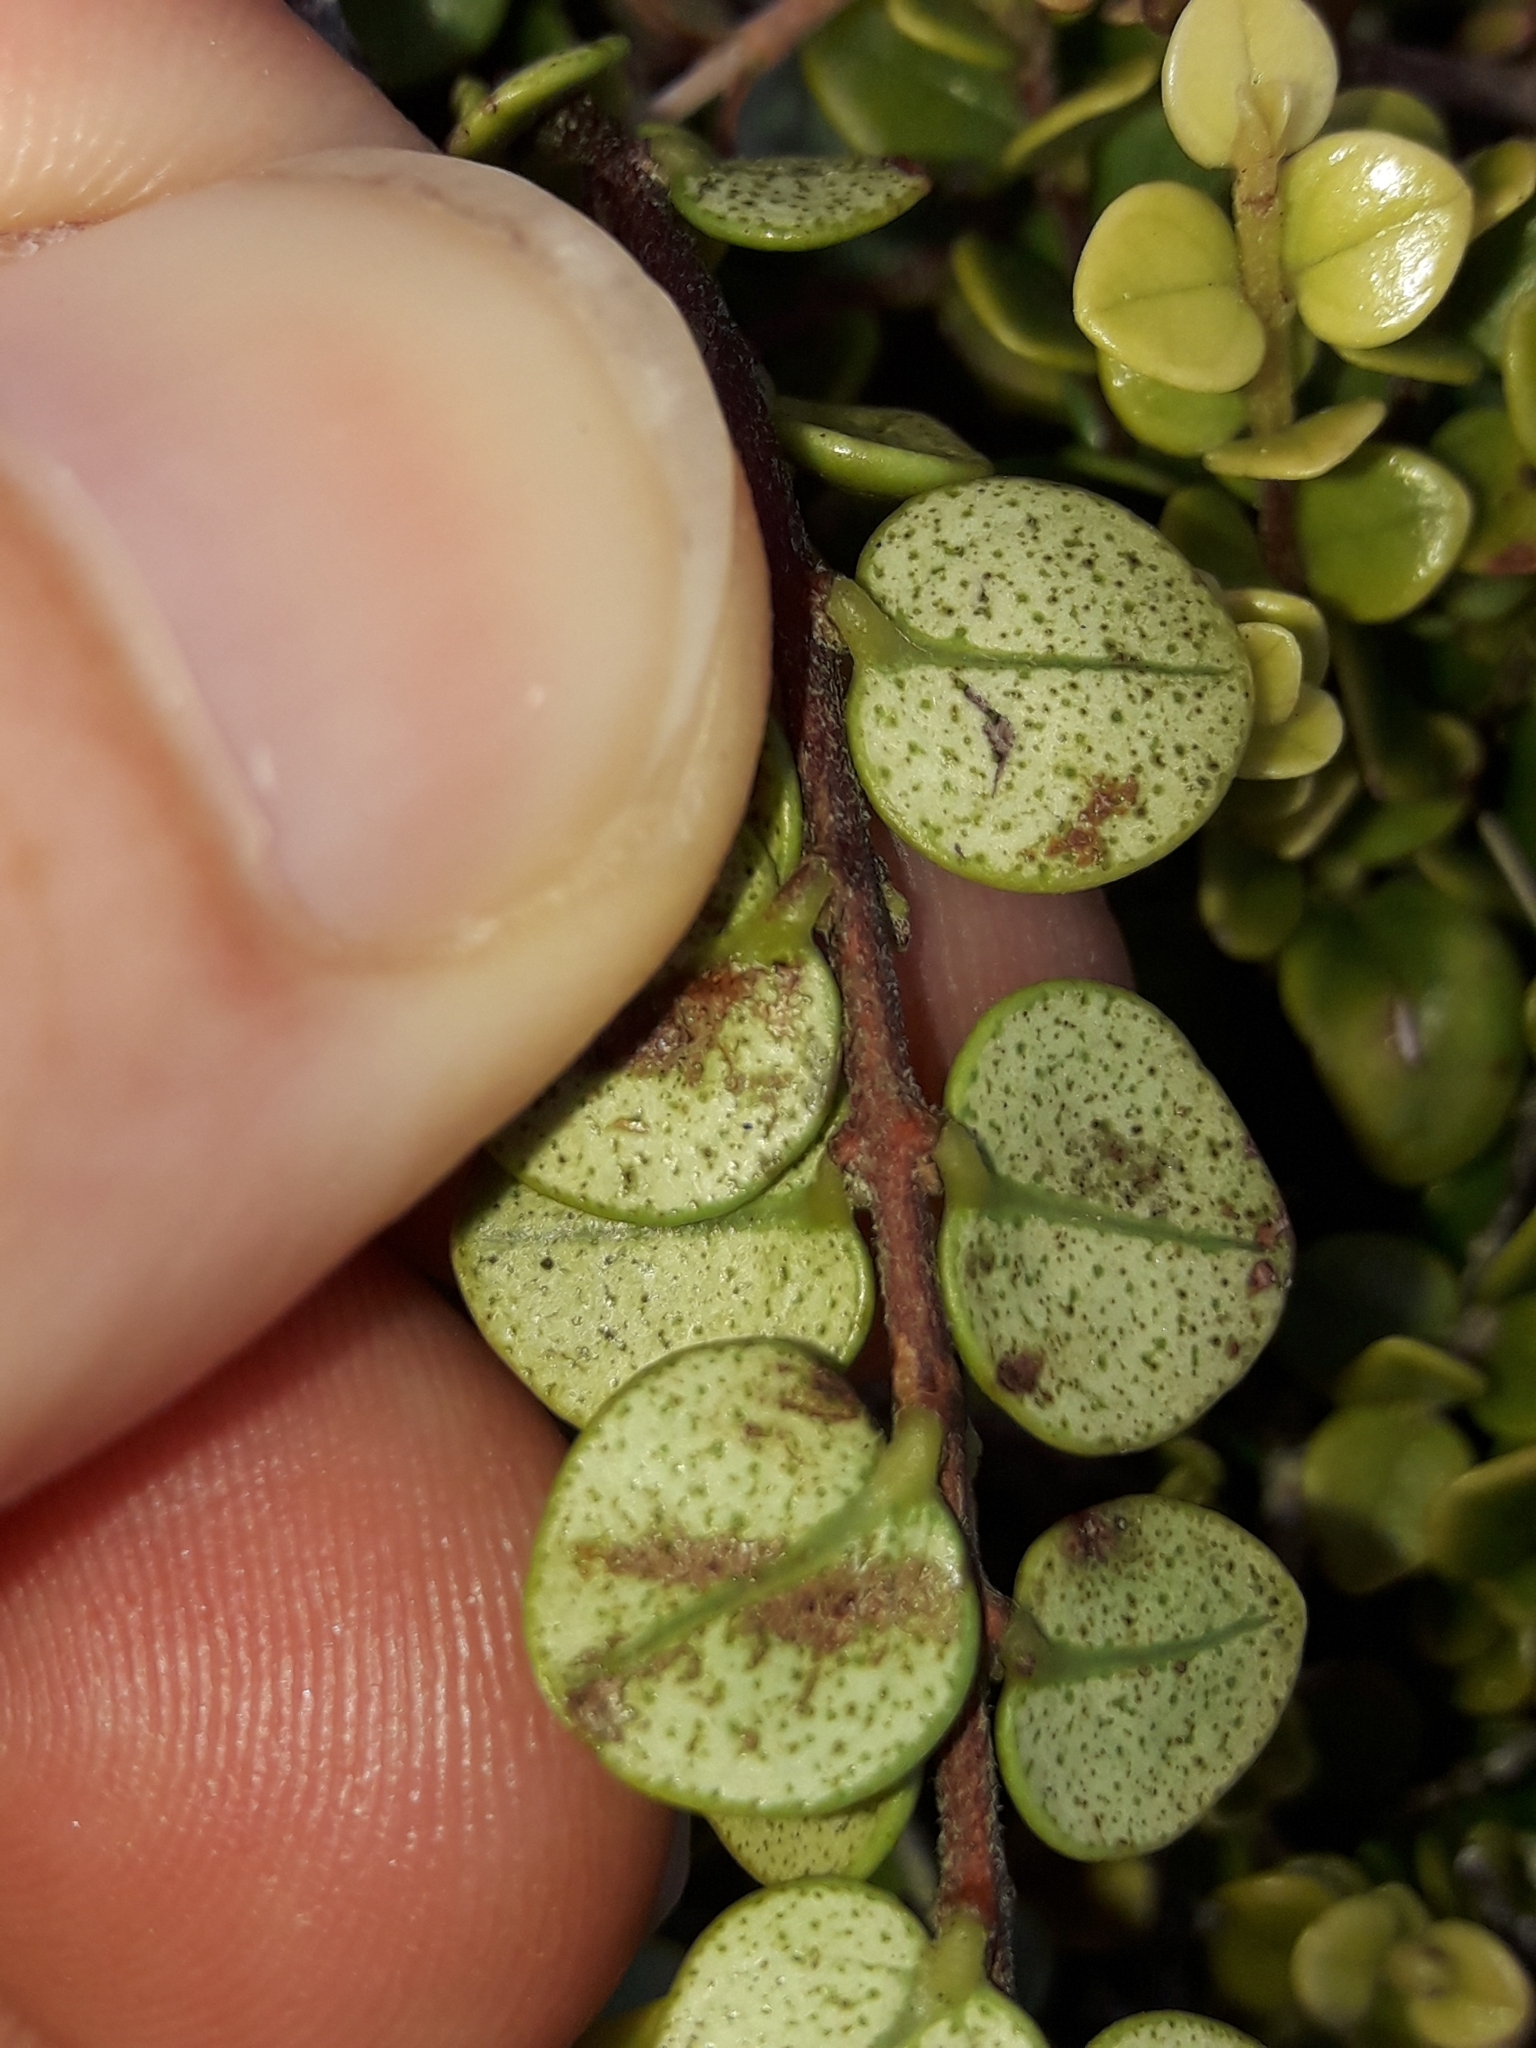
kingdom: Plantae
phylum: Tracheophyta
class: Magnoliopsida
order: Myrtales
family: Myrtaceae
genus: Metrosideros
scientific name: Metrosideros perforata
